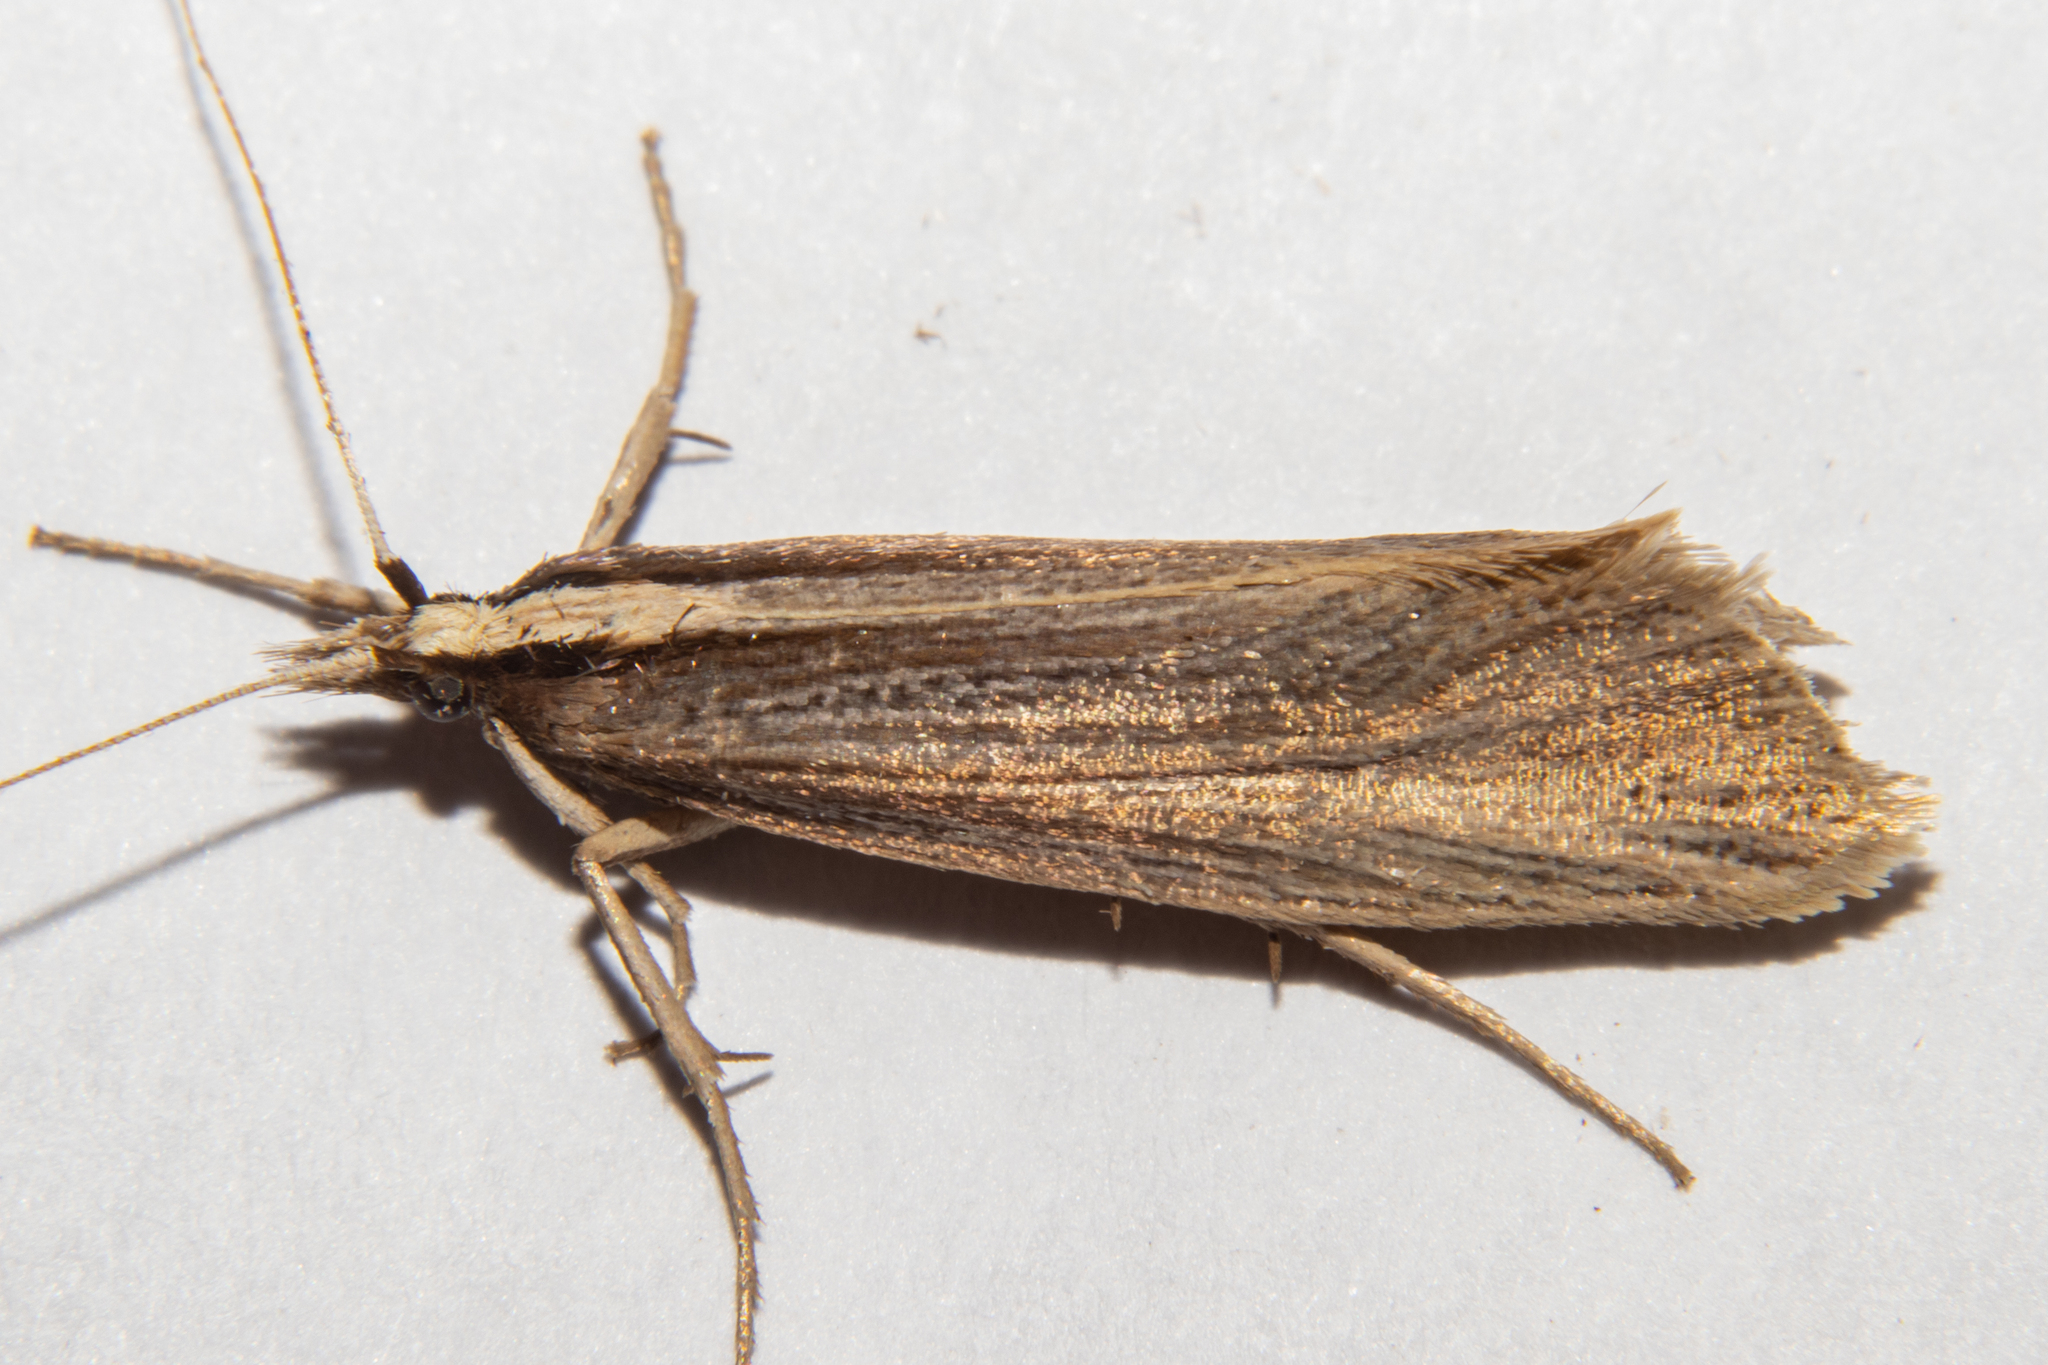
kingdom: Animalia
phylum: Arthropoda
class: Insecta
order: Lepidoptera
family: Plutellidae
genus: Proditrix
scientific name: Proditrix megalynta
